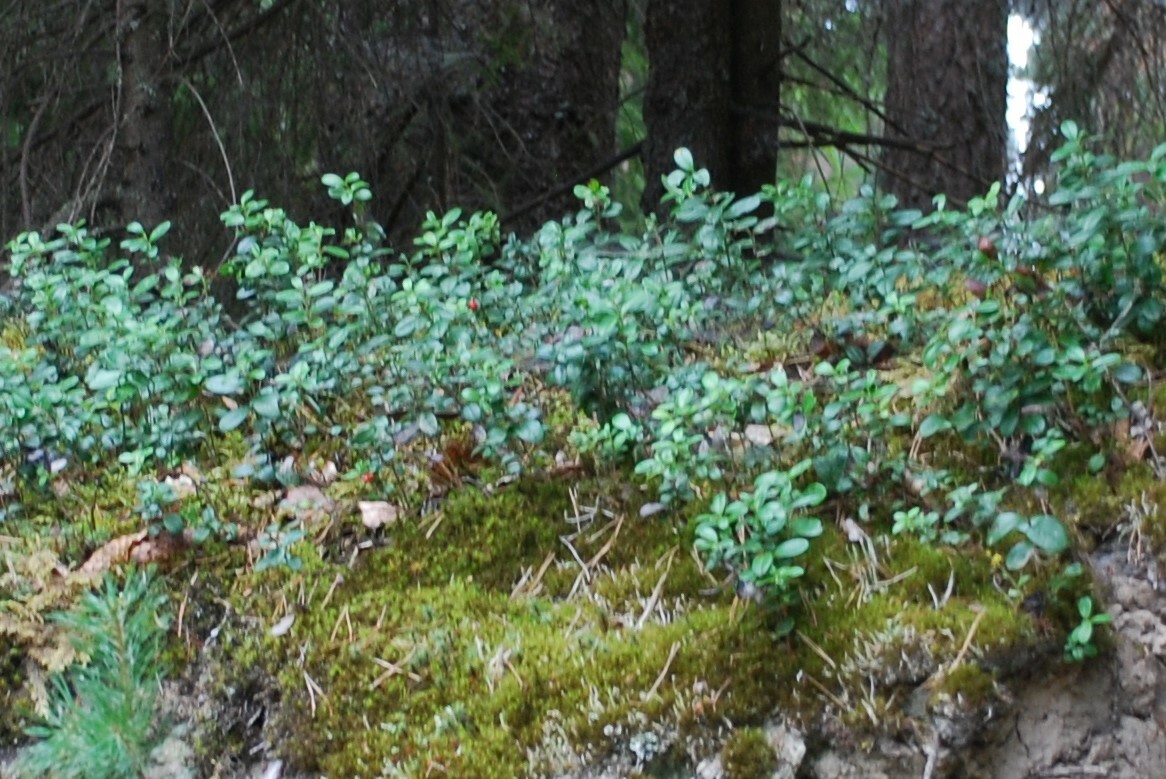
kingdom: Plantae
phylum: Tracheophyta
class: Magnoliopsida
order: Ericales
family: Ericaceae
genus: Vaccinium
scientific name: Vaccinium vitis-idaea
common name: Cowberry
